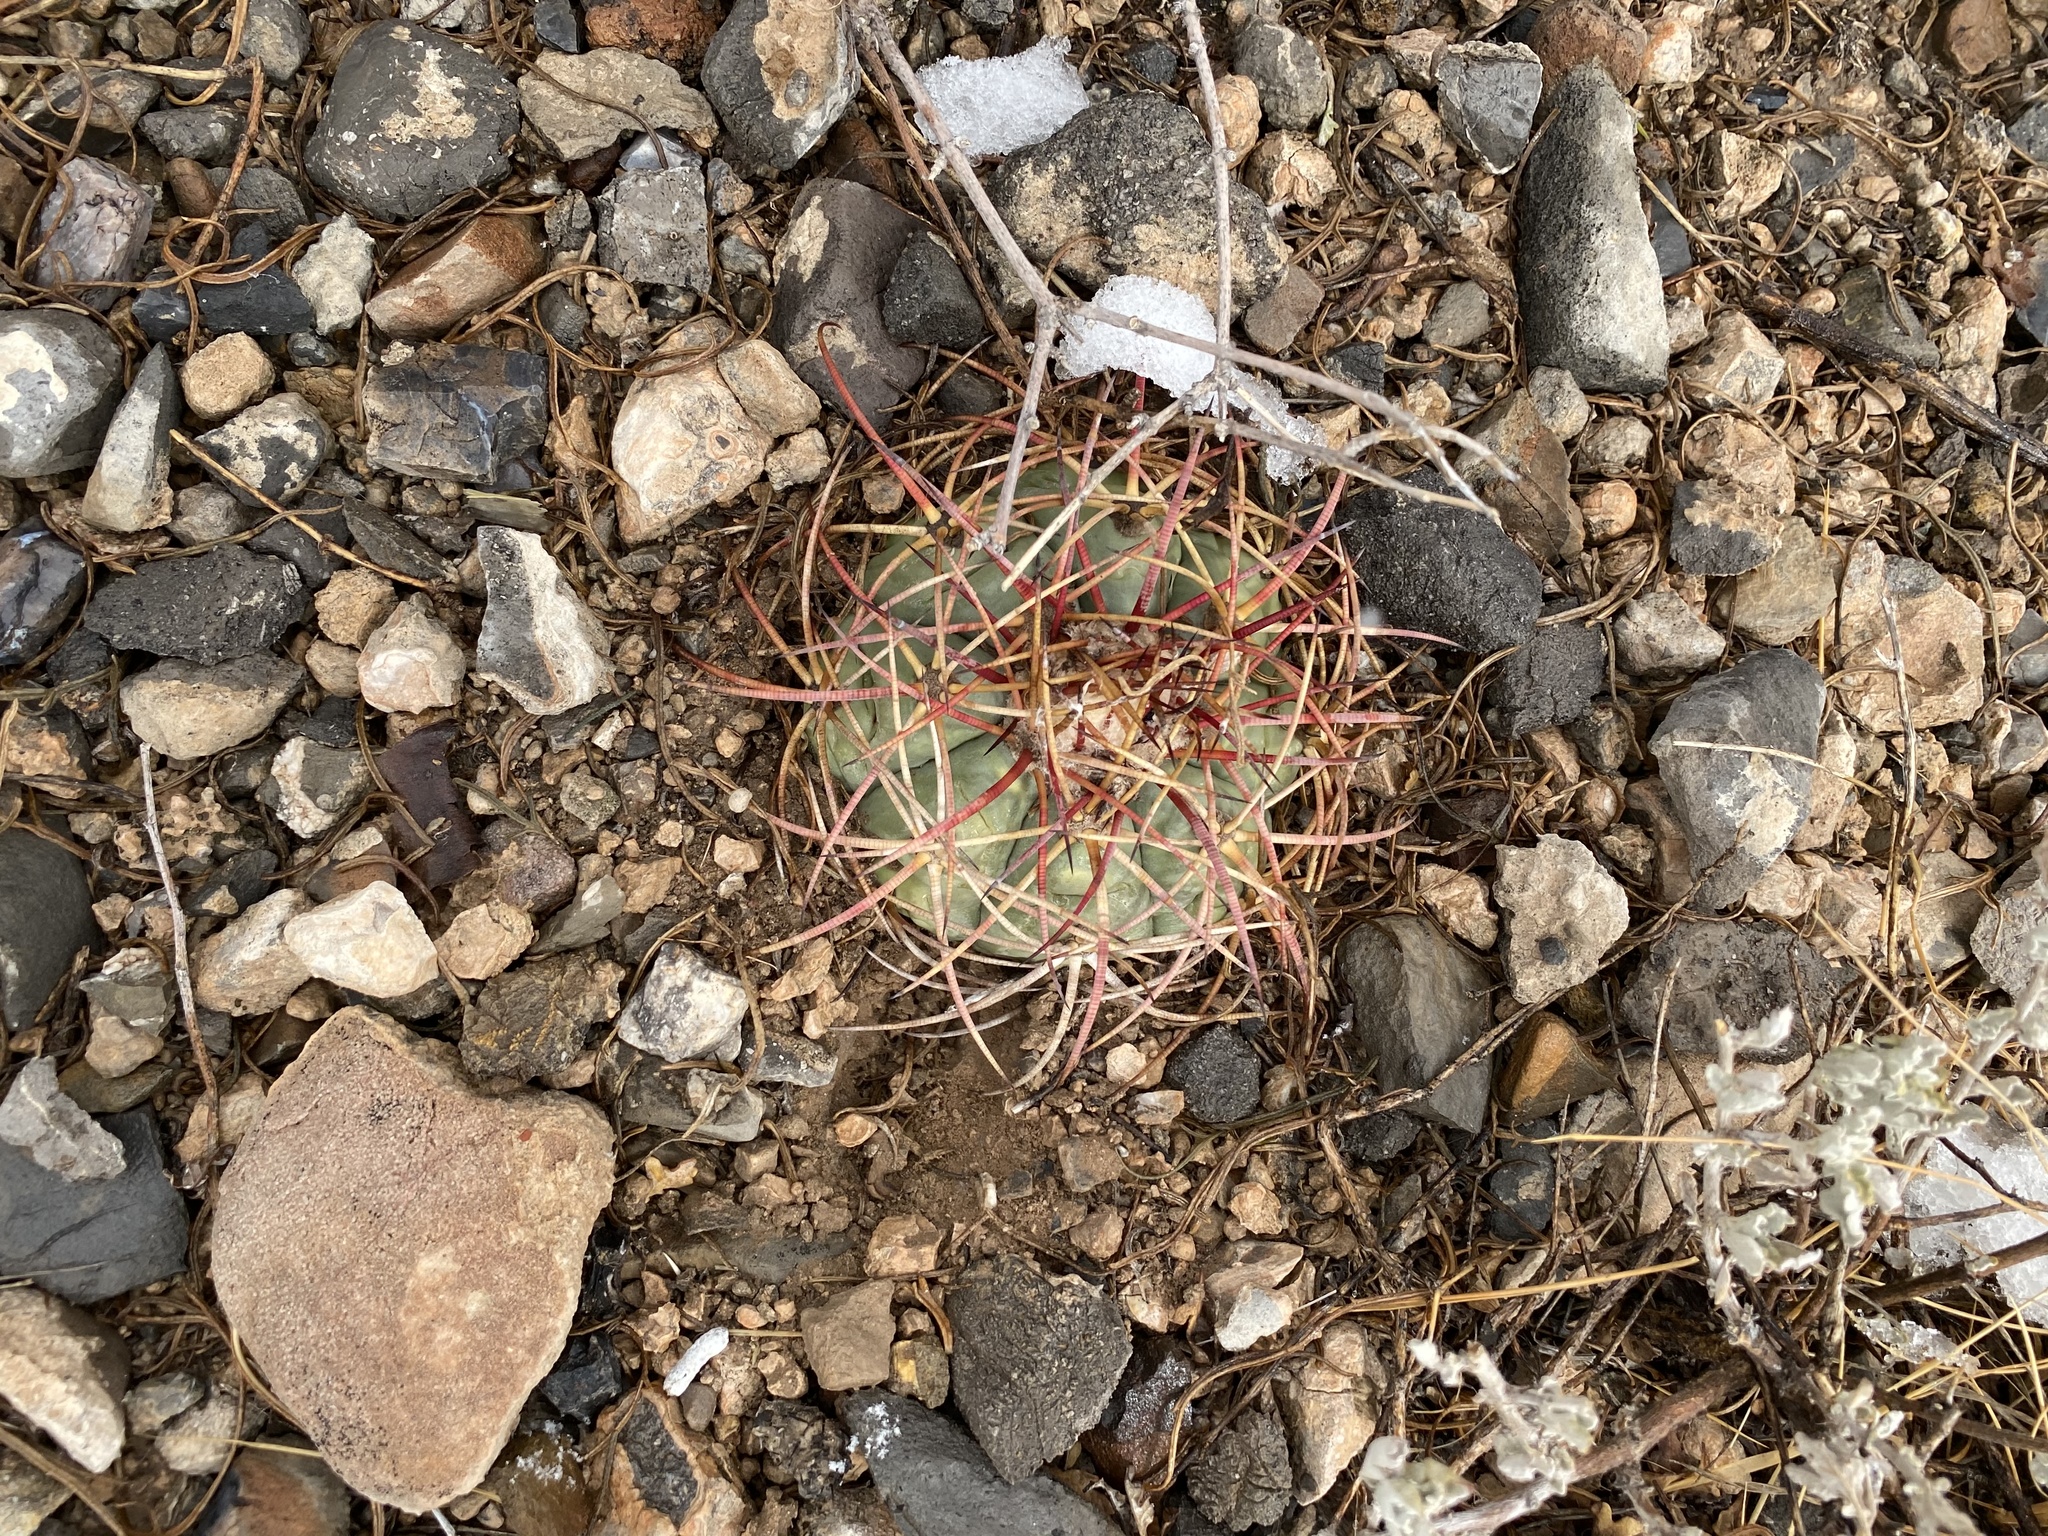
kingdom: Plantae
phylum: Tracheophyta
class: Magnoliopsida
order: Caryophyllales
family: Cactaceae
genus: Echinocactus
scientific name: Echinocactus horizonthalonius
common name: Devilshead
